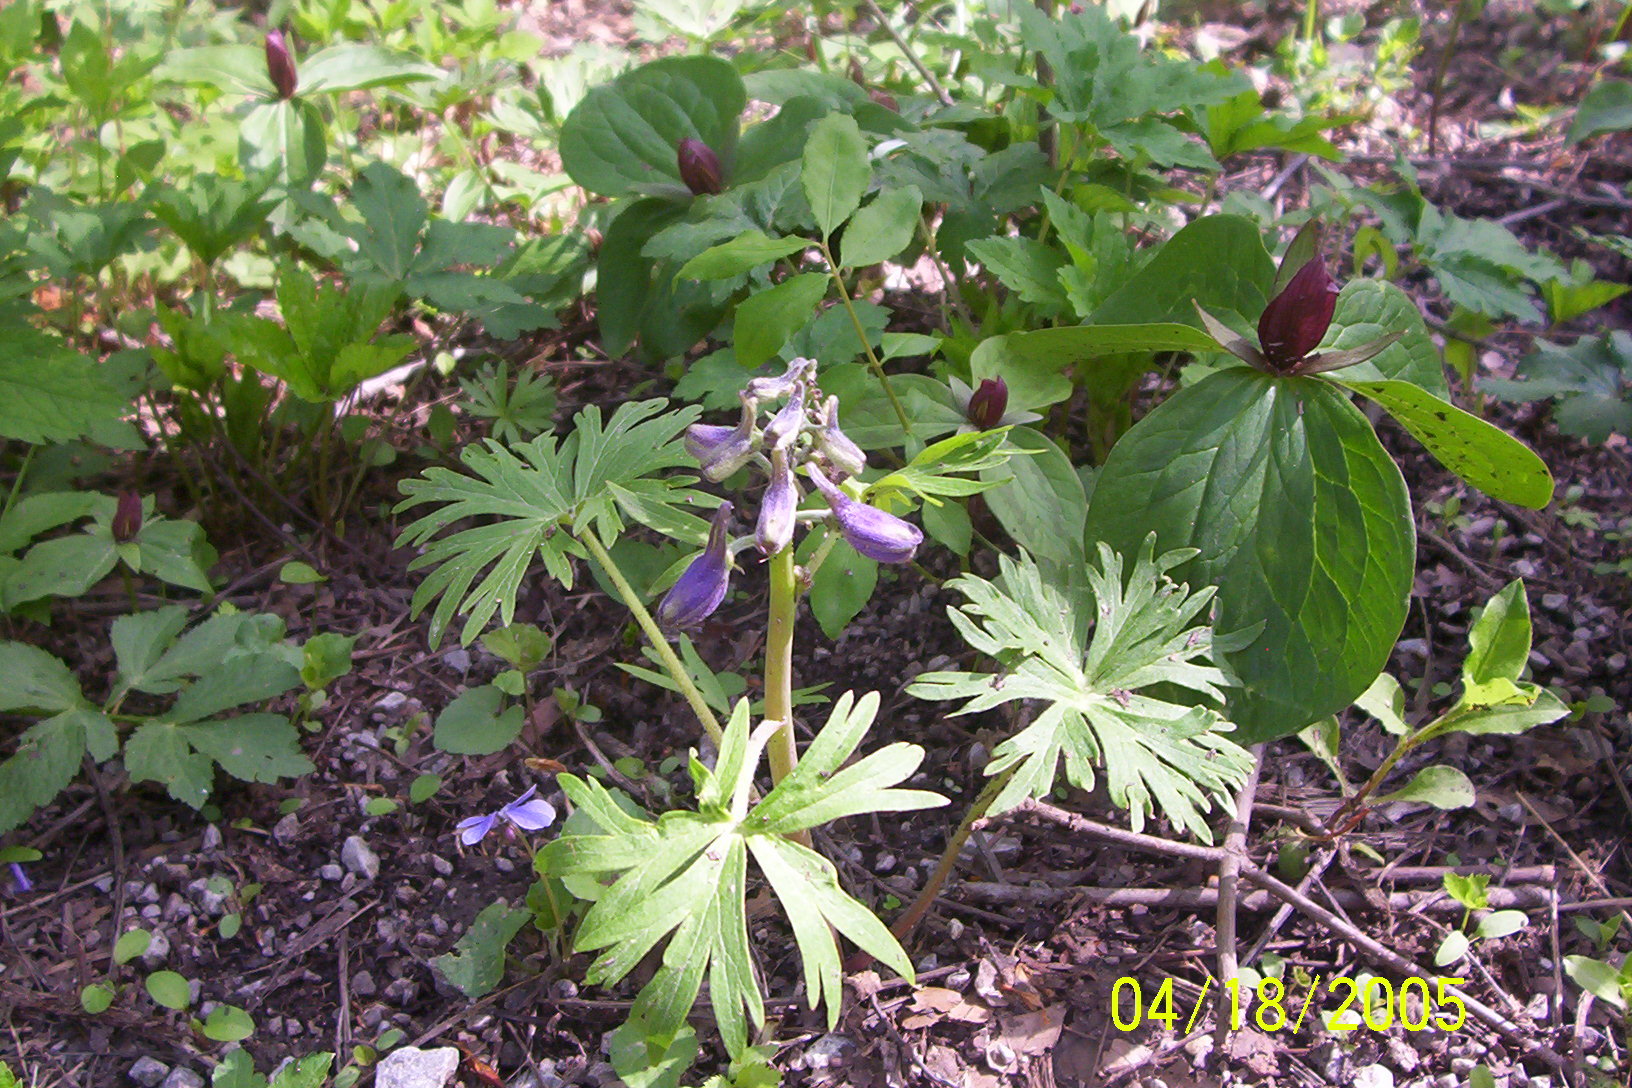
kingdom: Plantae
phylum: Tracheophyta
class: Magnoliopsida
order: Ranunculales
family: Ranunculaceae
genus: Delphinium
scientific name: Delphinium tricorne
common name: Dwarf larkspur
